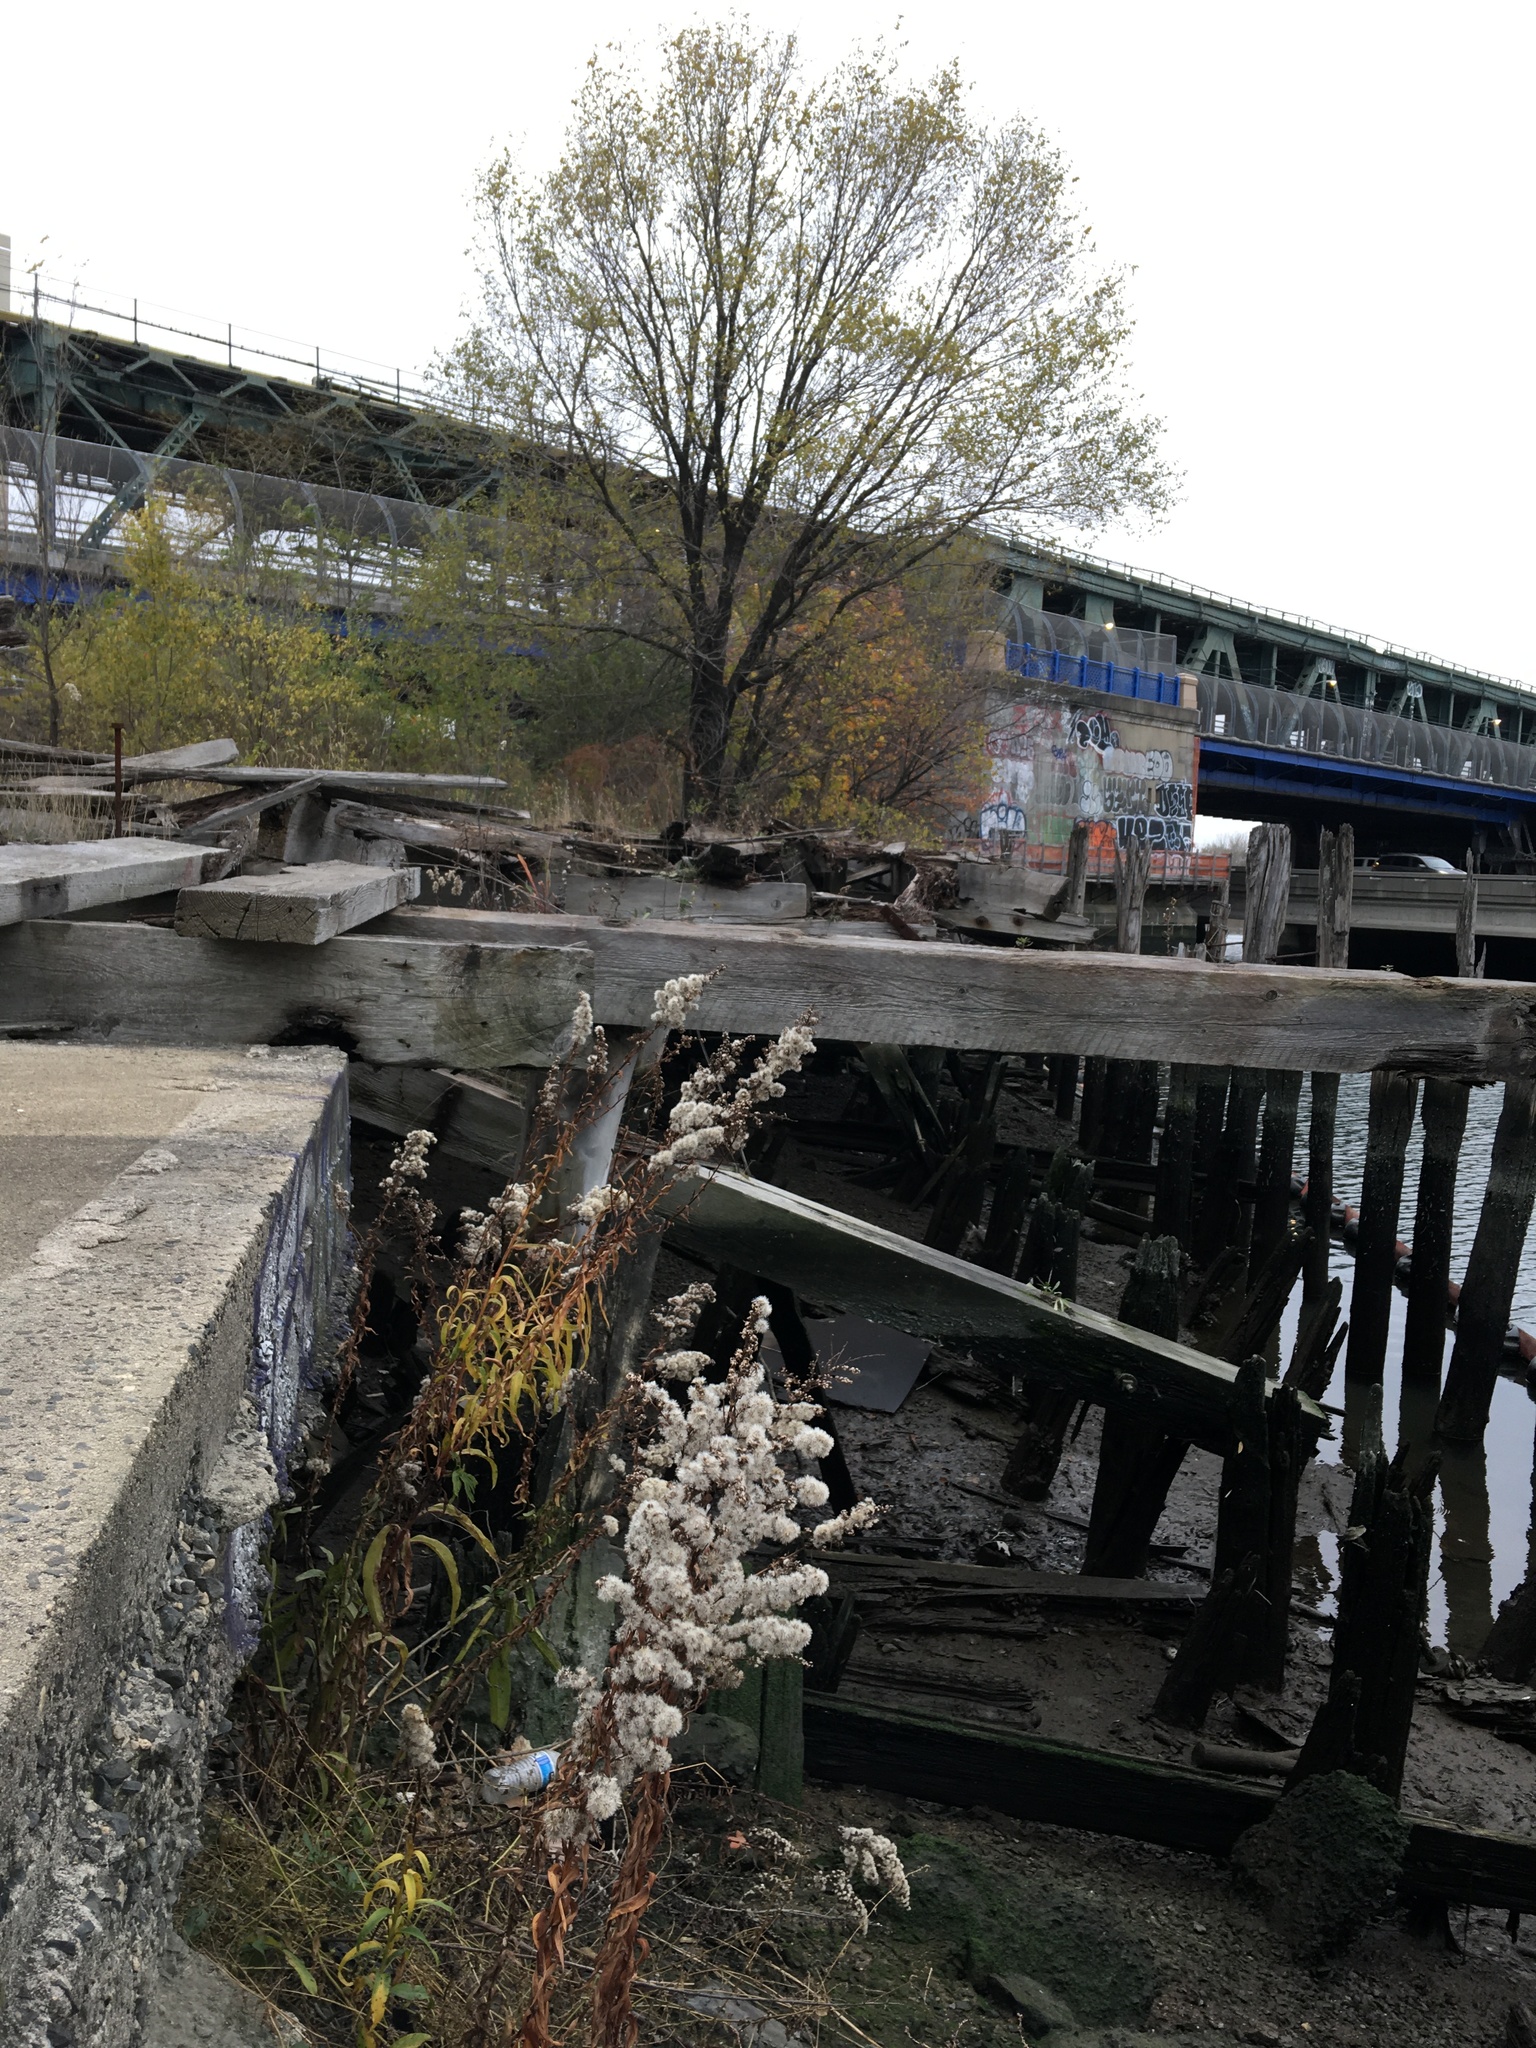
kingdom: Plantae
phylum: Tracheophyta
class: Magnoliopsida
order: Asterales
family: Asteraceae
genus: Solidago
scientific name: Solidago sempervirens
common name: Salt-marsh goldenrod
